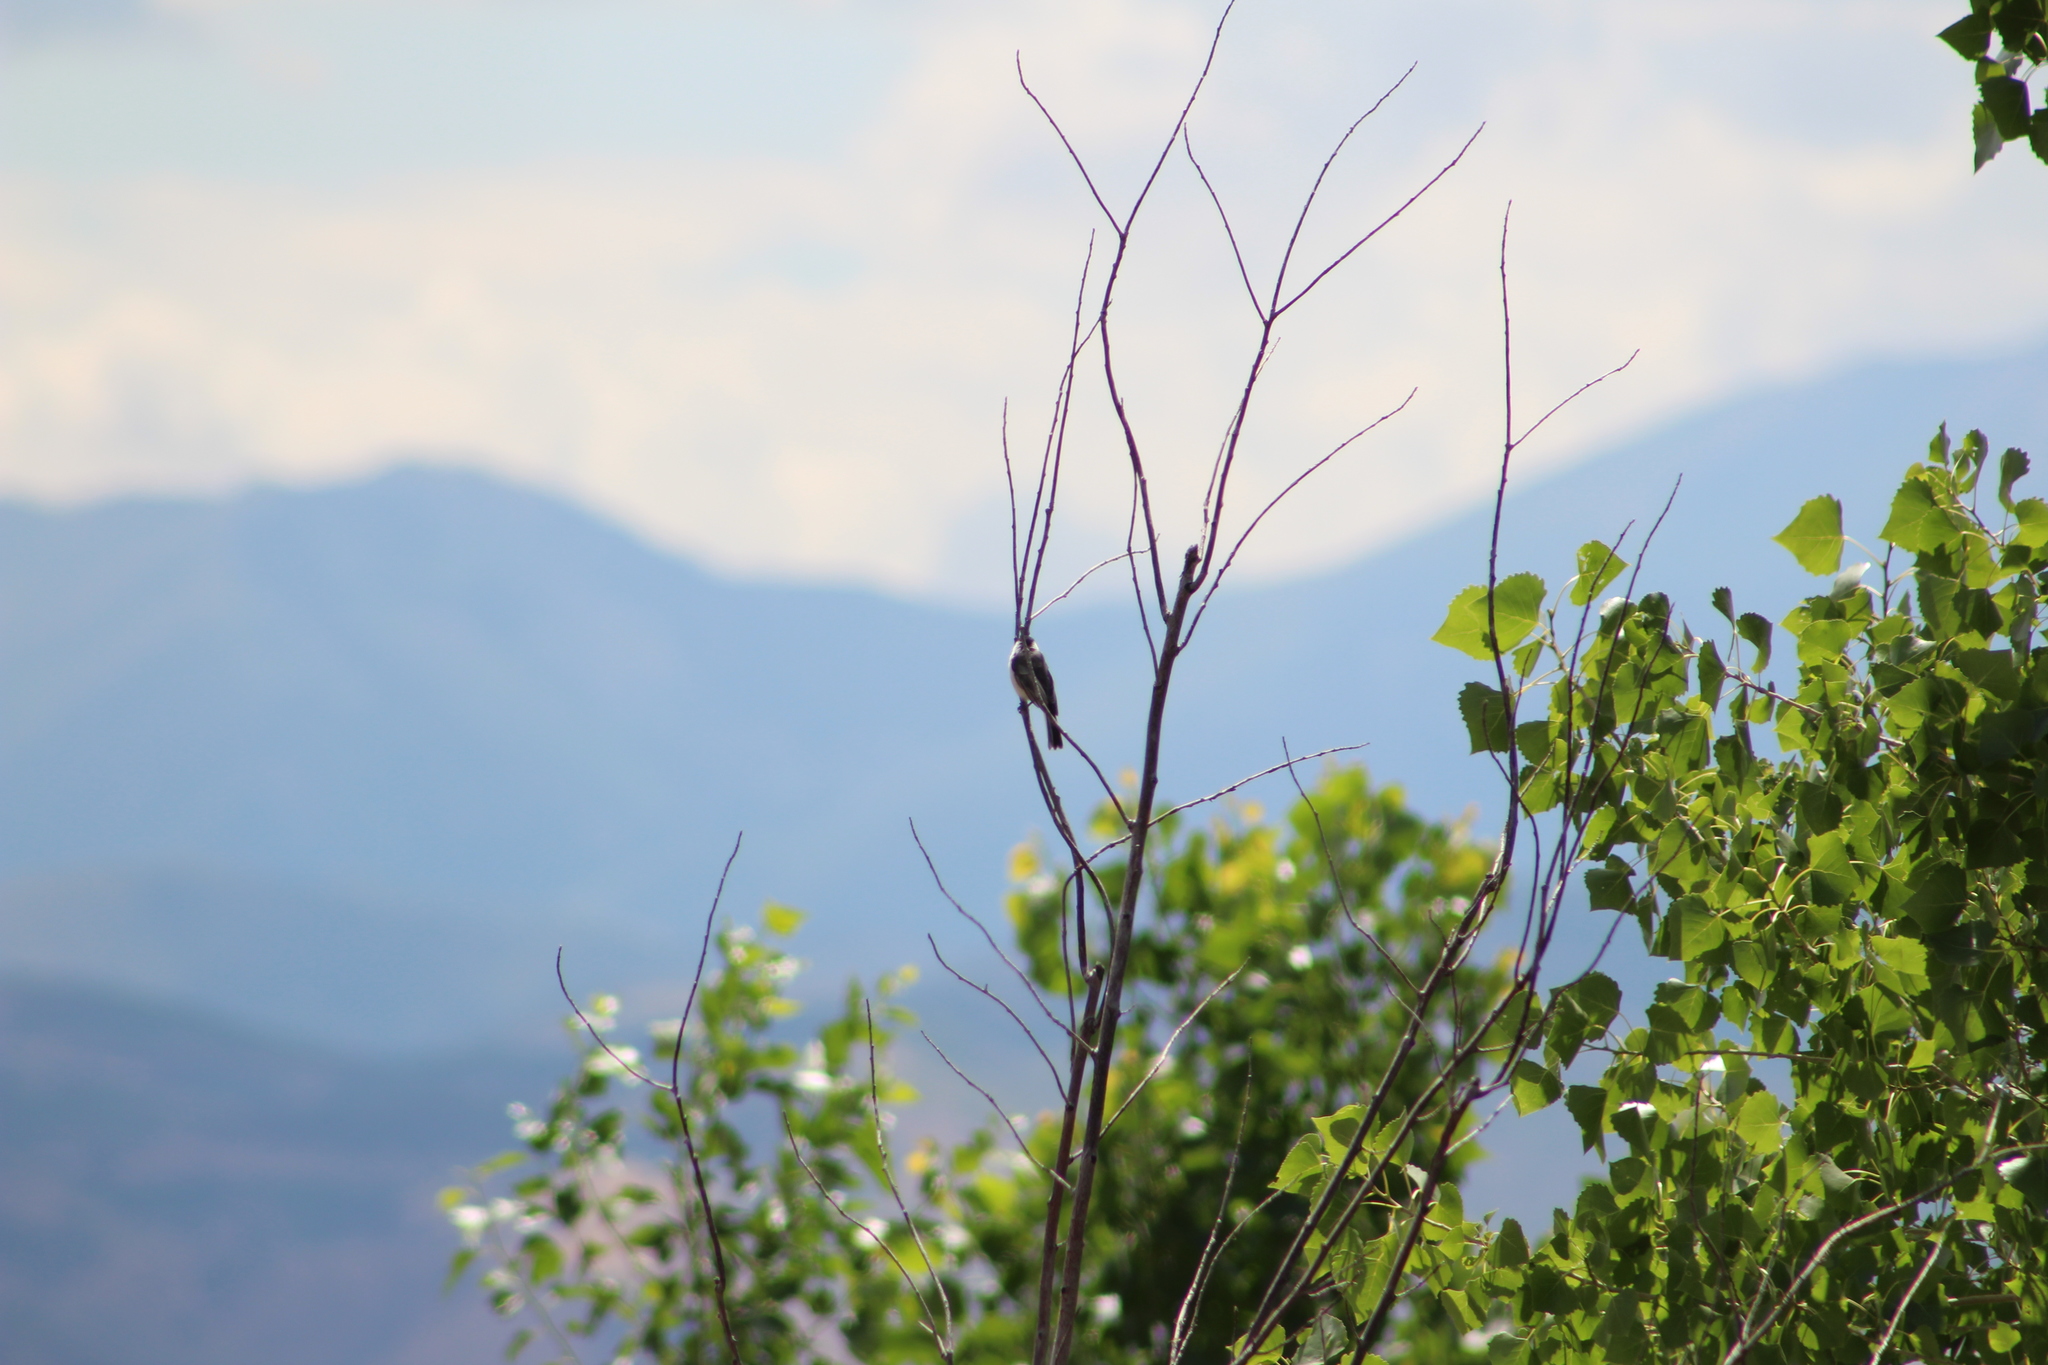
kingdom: Animalia
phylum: Chordata
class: Aves
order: Passeriformes
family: Paridae
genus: Poecile
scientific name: Poecile atricapillus
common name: Black-capped chickadee
